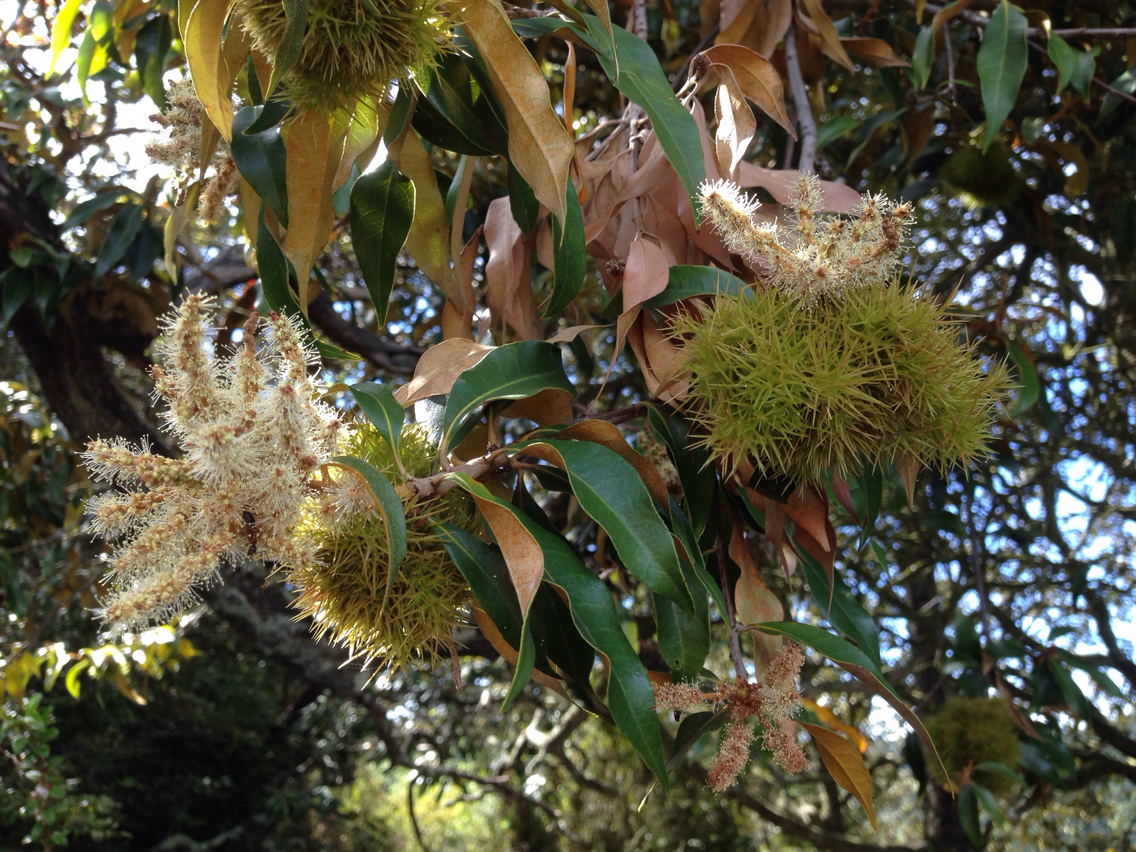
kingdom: Plantae
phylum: Tracheophyta
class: Magnoliopsida
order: Fagales
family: Fagaceae
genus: Chrysolepis
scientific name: Chrysolepis chrysophylla
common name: Giant chinquapin
